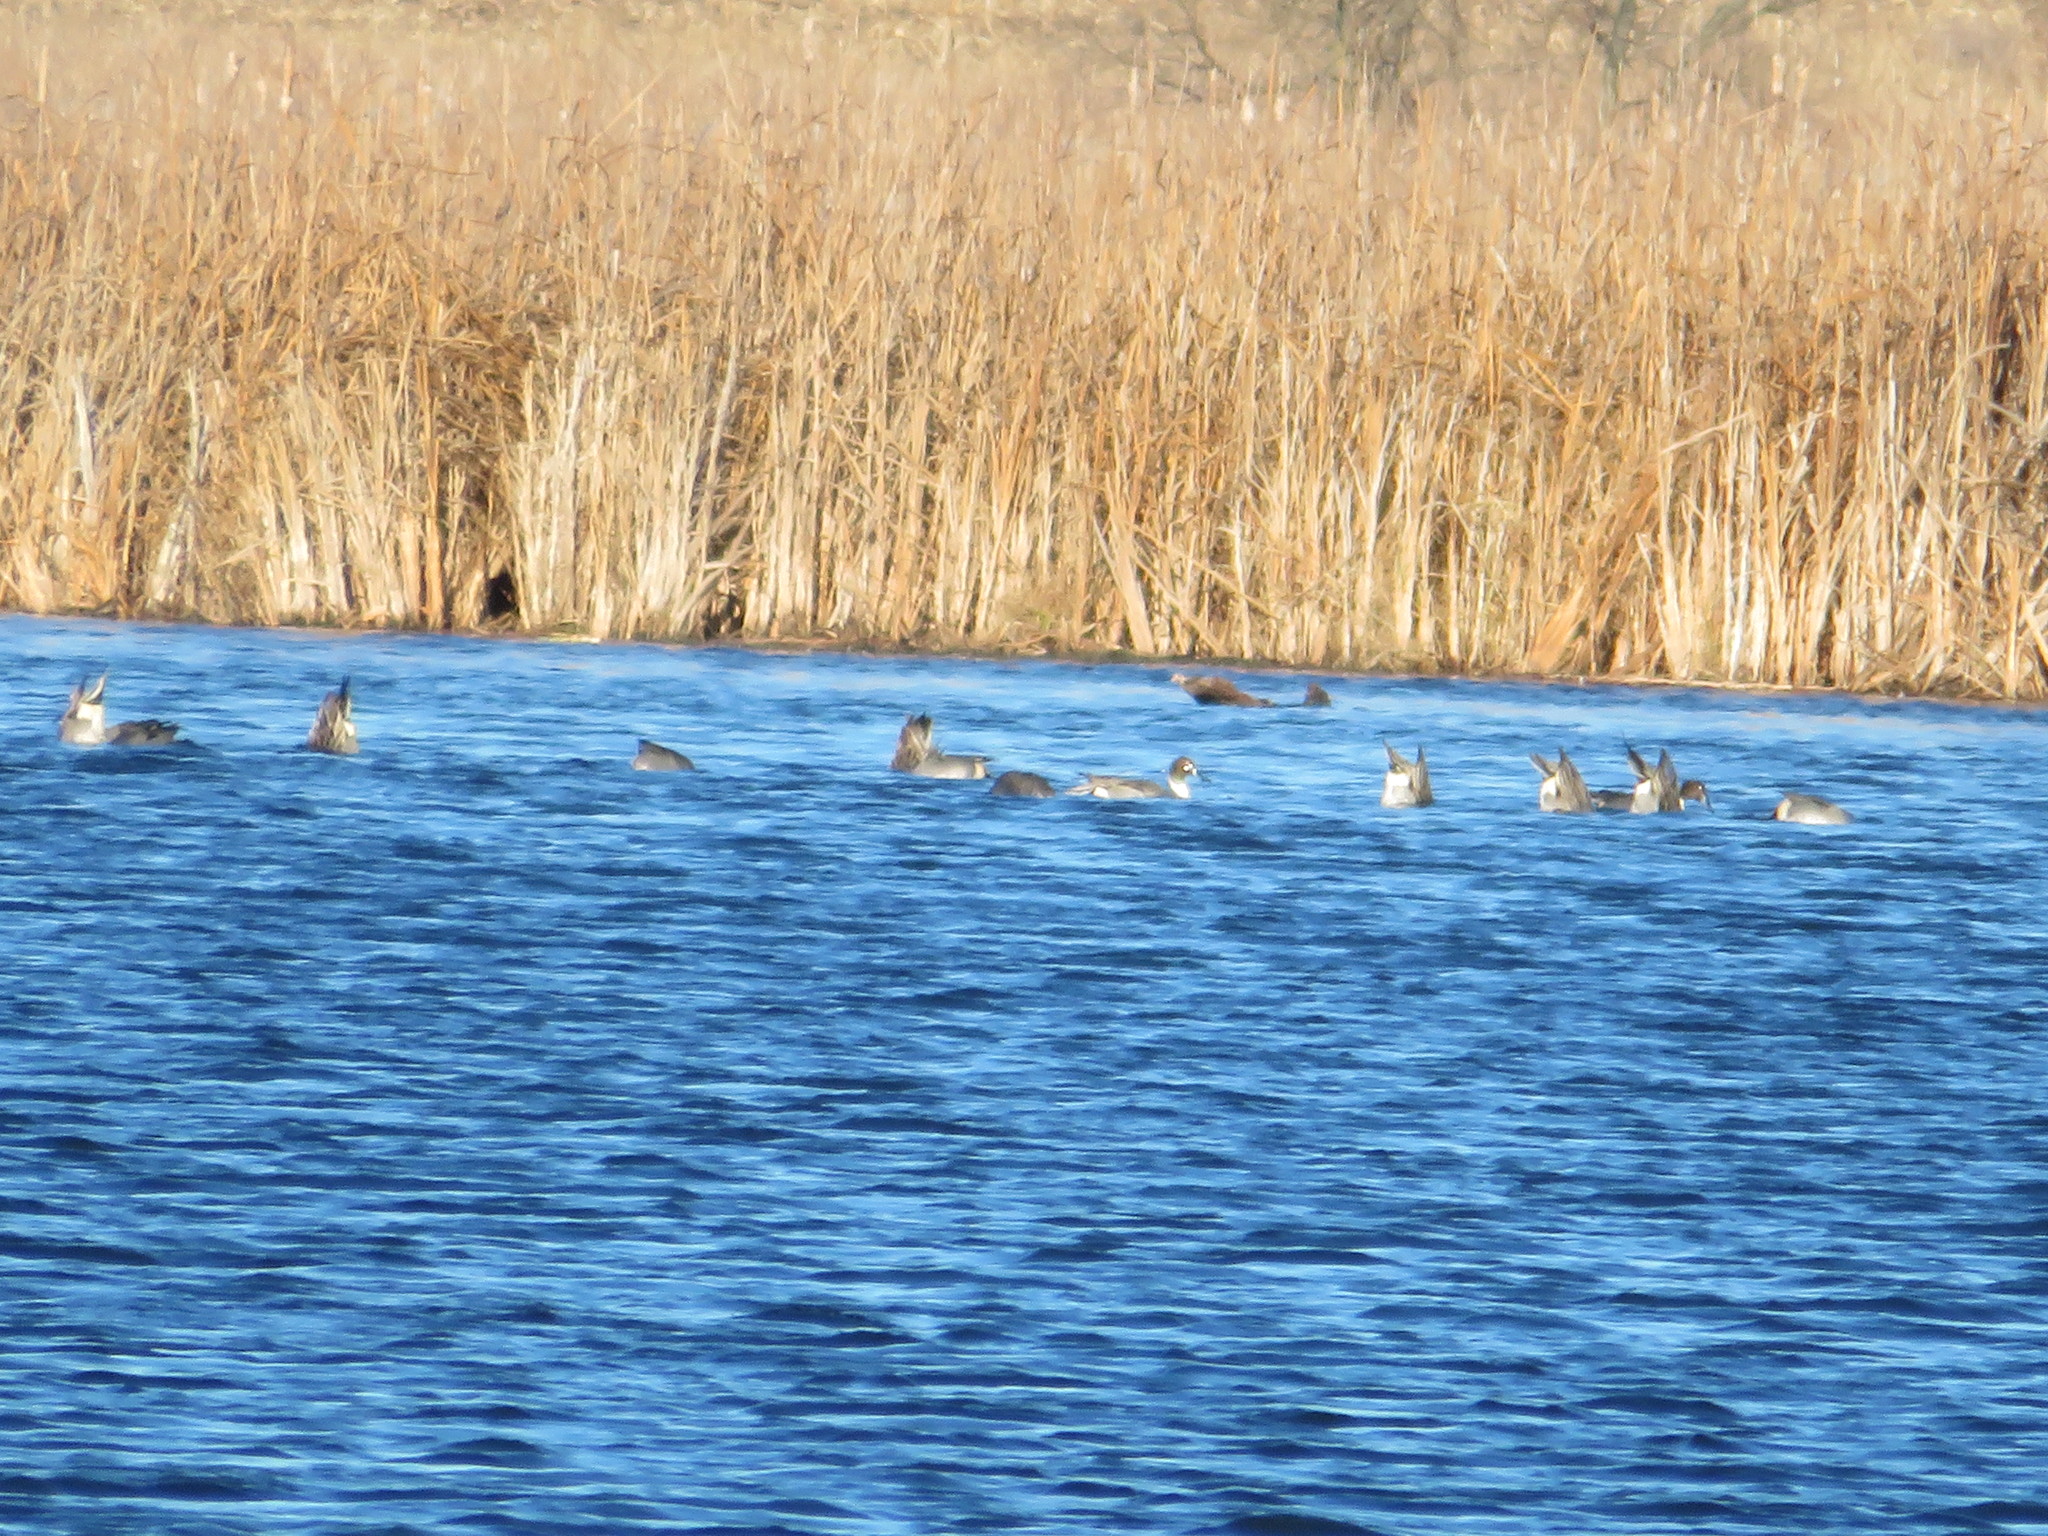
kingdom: Animalia
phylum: Chordata
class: Aves
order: Anseriformes
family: Anatidae
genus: Anas
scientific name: Anas acuta
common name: Northern pintail
